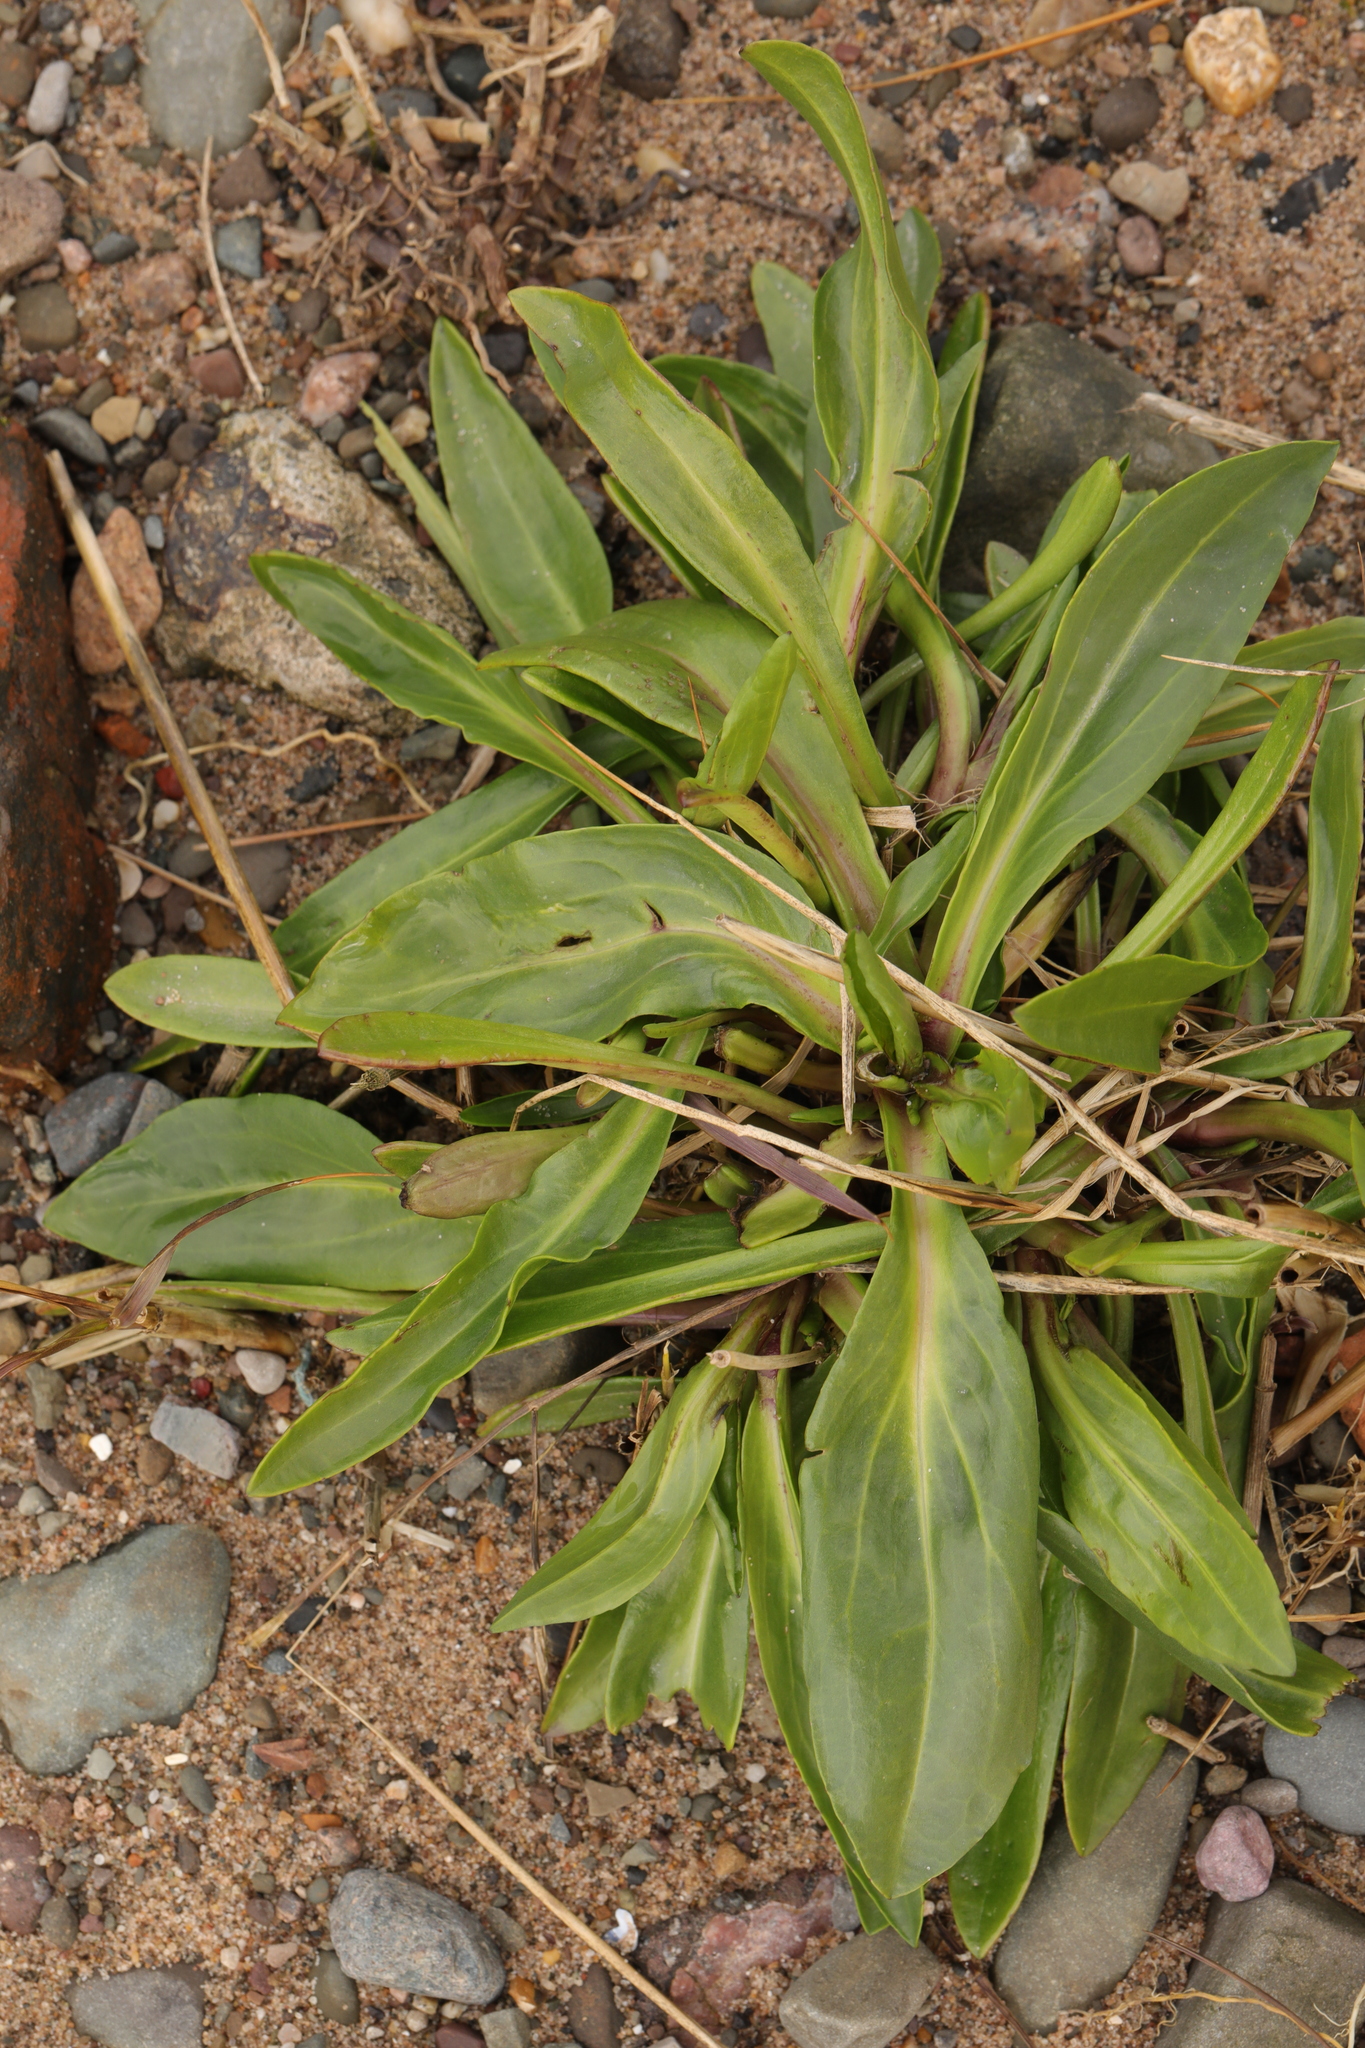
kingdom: Plantae
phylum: Tracheophyta
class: Magnoliopsida
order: Asterales
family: Asteraceae
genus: Tripolium
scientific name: Tripolium pannonicum
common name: Sea aster
